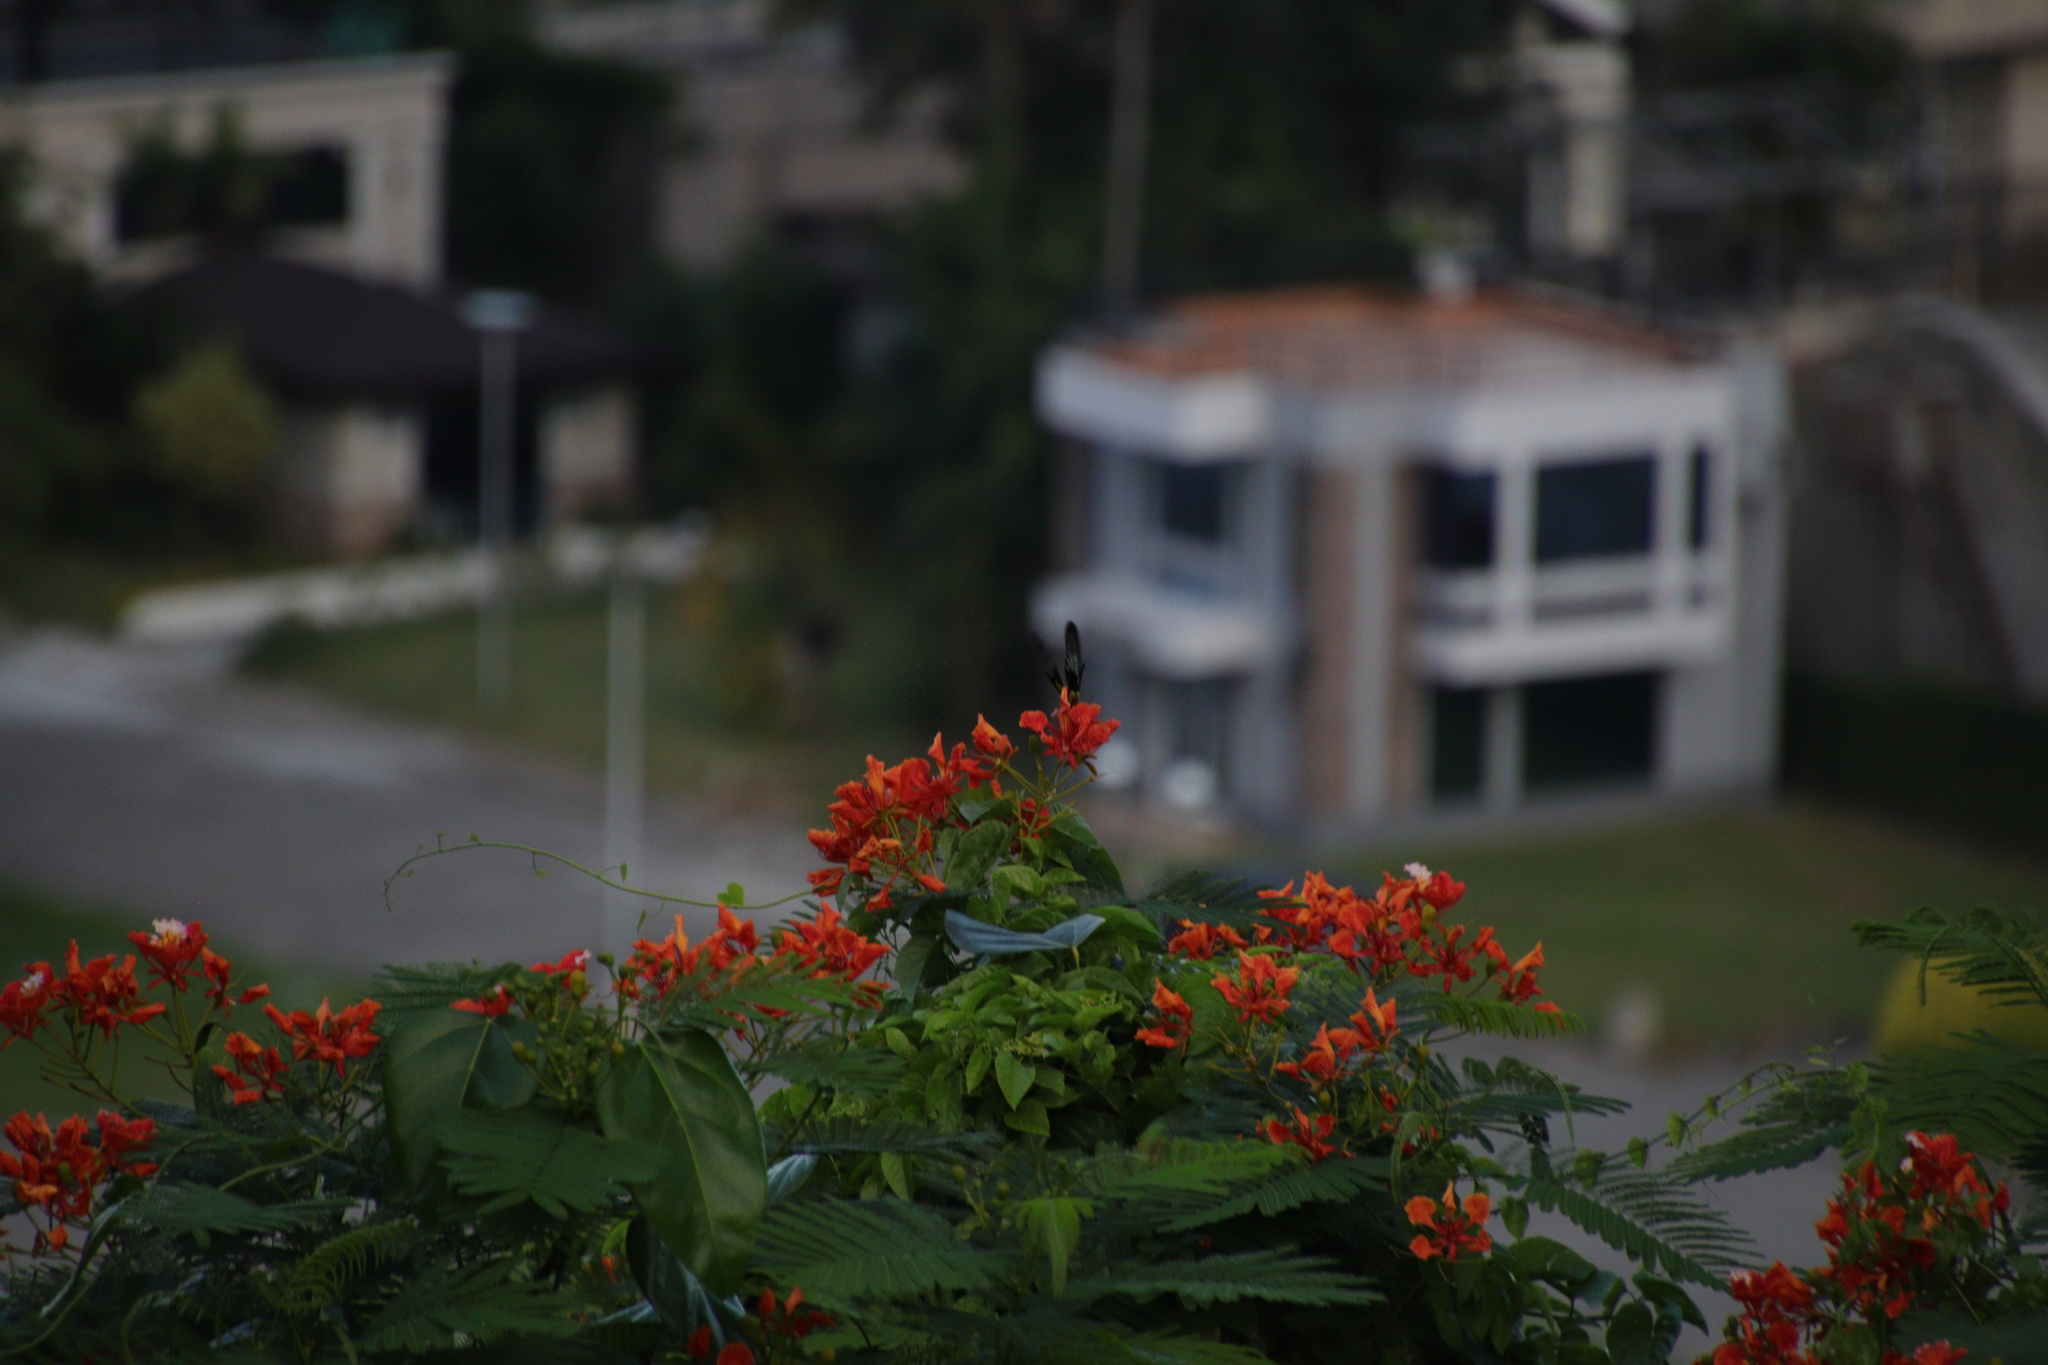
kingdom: Animalia
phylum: Arthropoda
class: Insecta
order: Lepidoptera
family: Papilionidae
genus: Troides
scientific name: Troides rhadamantus
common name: Golden birdwing
